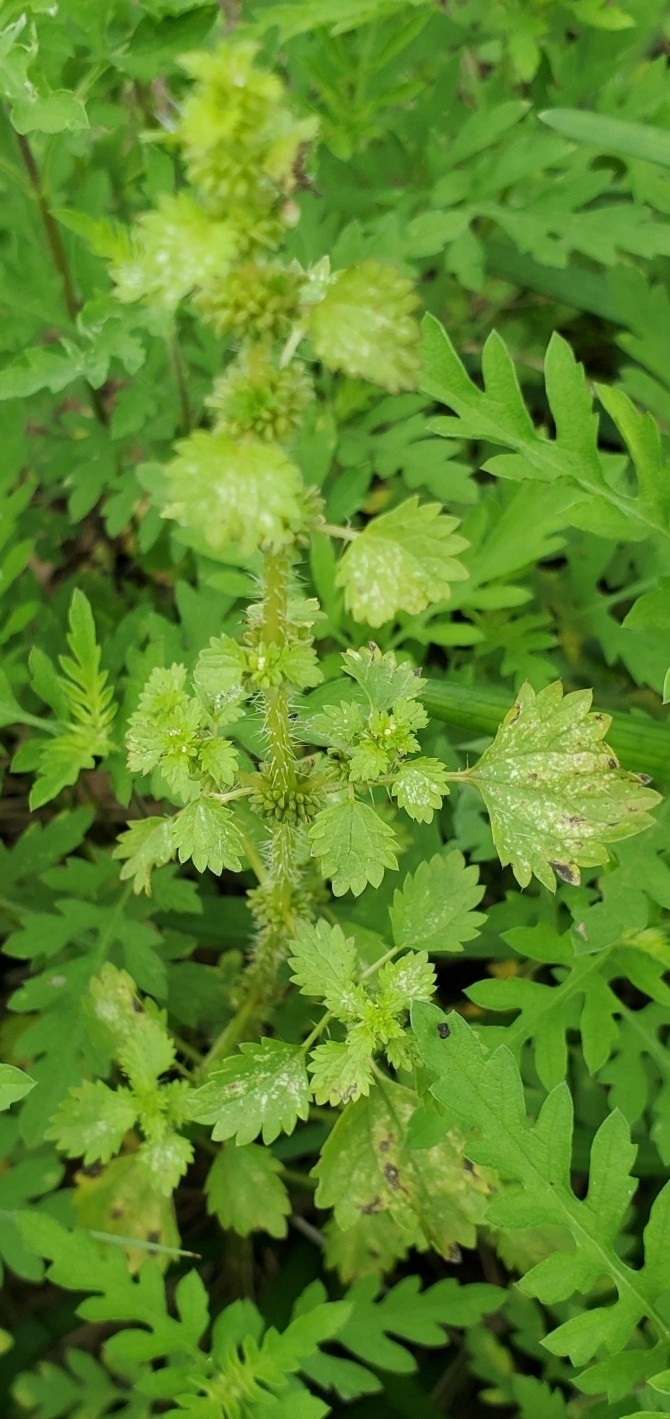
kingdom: Plantae
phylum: Tracheophyta
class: Magnoliopsida
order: Rosales
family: Urticaceae
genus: Urtica
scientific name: Urtica chamaedryoides
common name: Heart-leaf nettle
